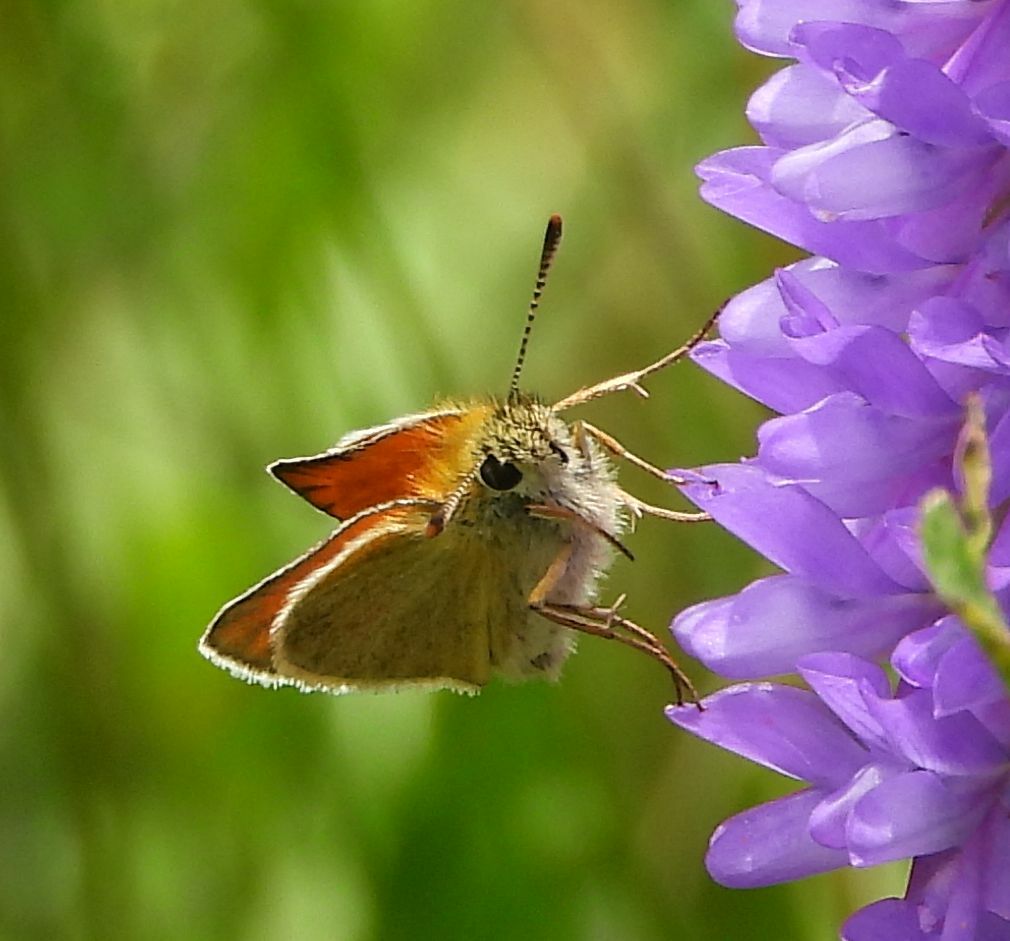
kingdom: Animalia
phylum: Arthropoda
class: Insecta
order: Lepidoptera
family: Hesperiidae
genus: Thymelicus
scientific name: Thymelicus lineola
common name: Essex skipper
